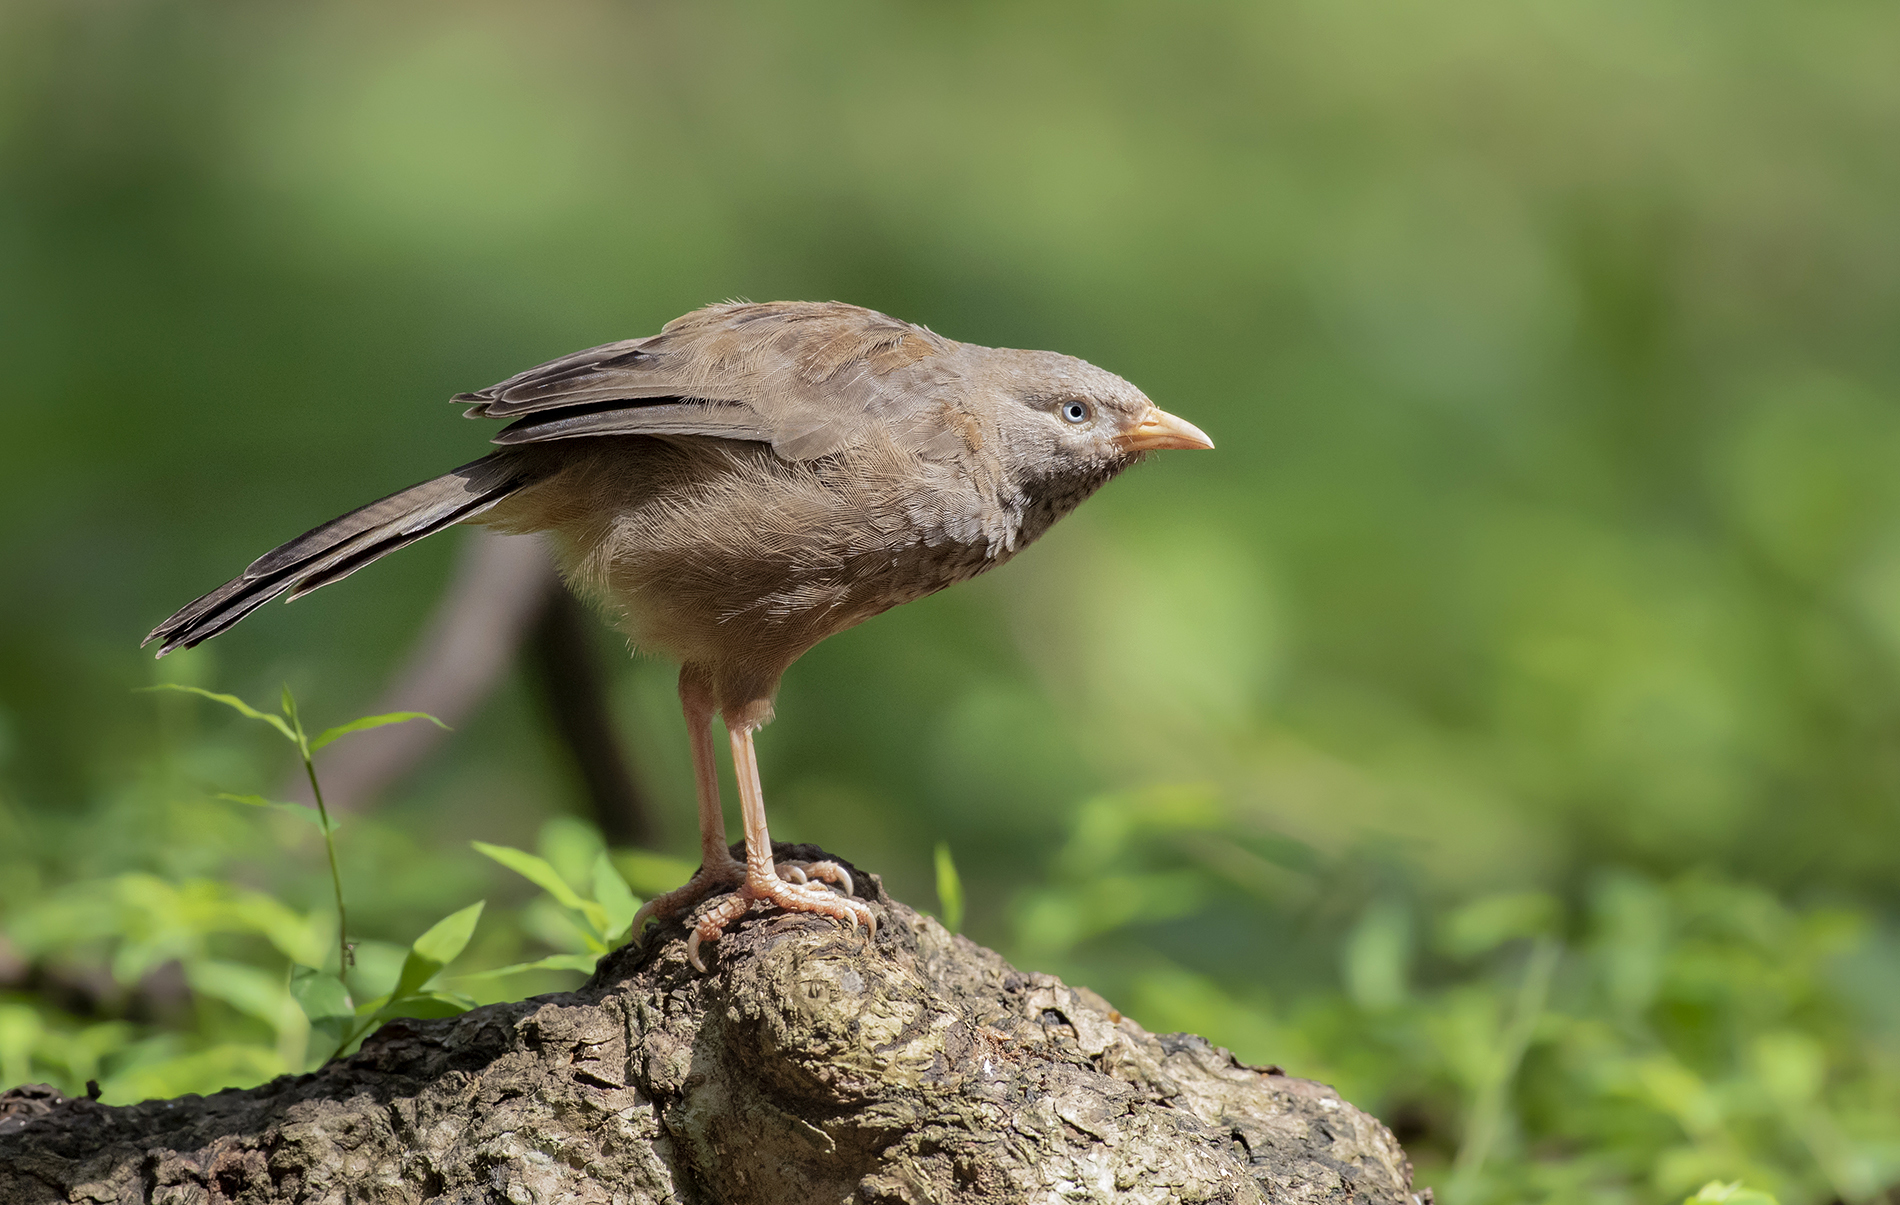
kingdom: Animalia
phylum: Chordata
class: Aves
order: Passeriformes
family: Leiothrichidae
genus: Turdoides
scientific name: Turdoides affinis
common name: Yellow-billed babbler
